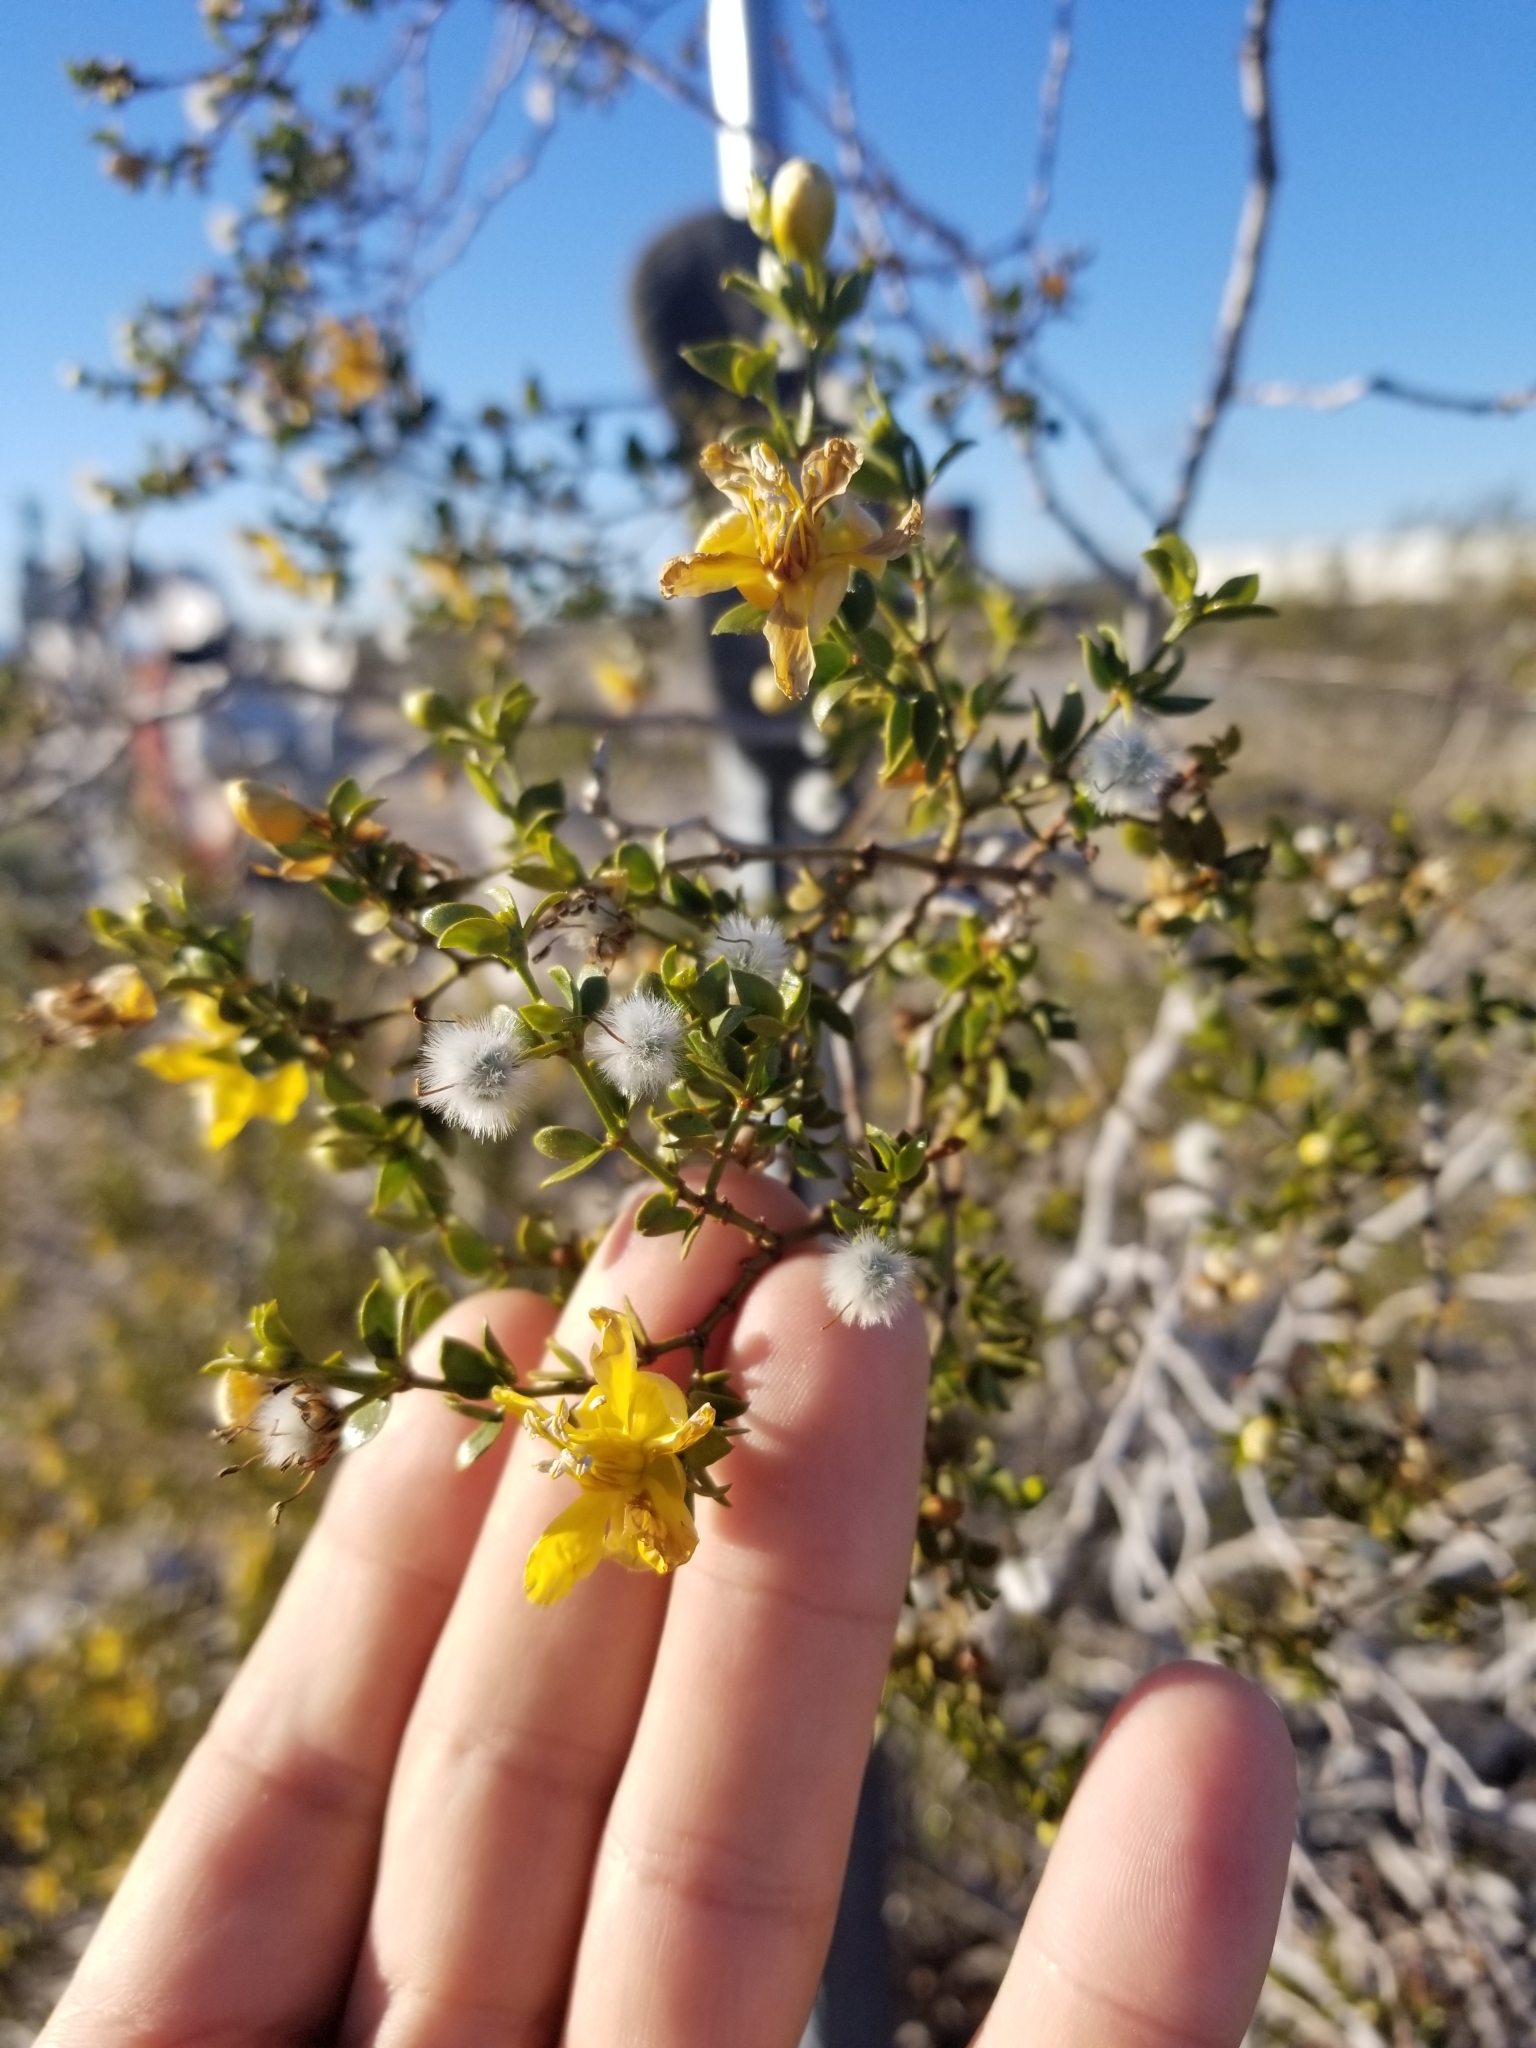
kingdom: Plantae
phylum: Tracheophyta
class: Magnoliopsida
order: Zygophyllales
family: Zygophyllaceae
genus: Larrea
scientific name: Larrea tridentata
